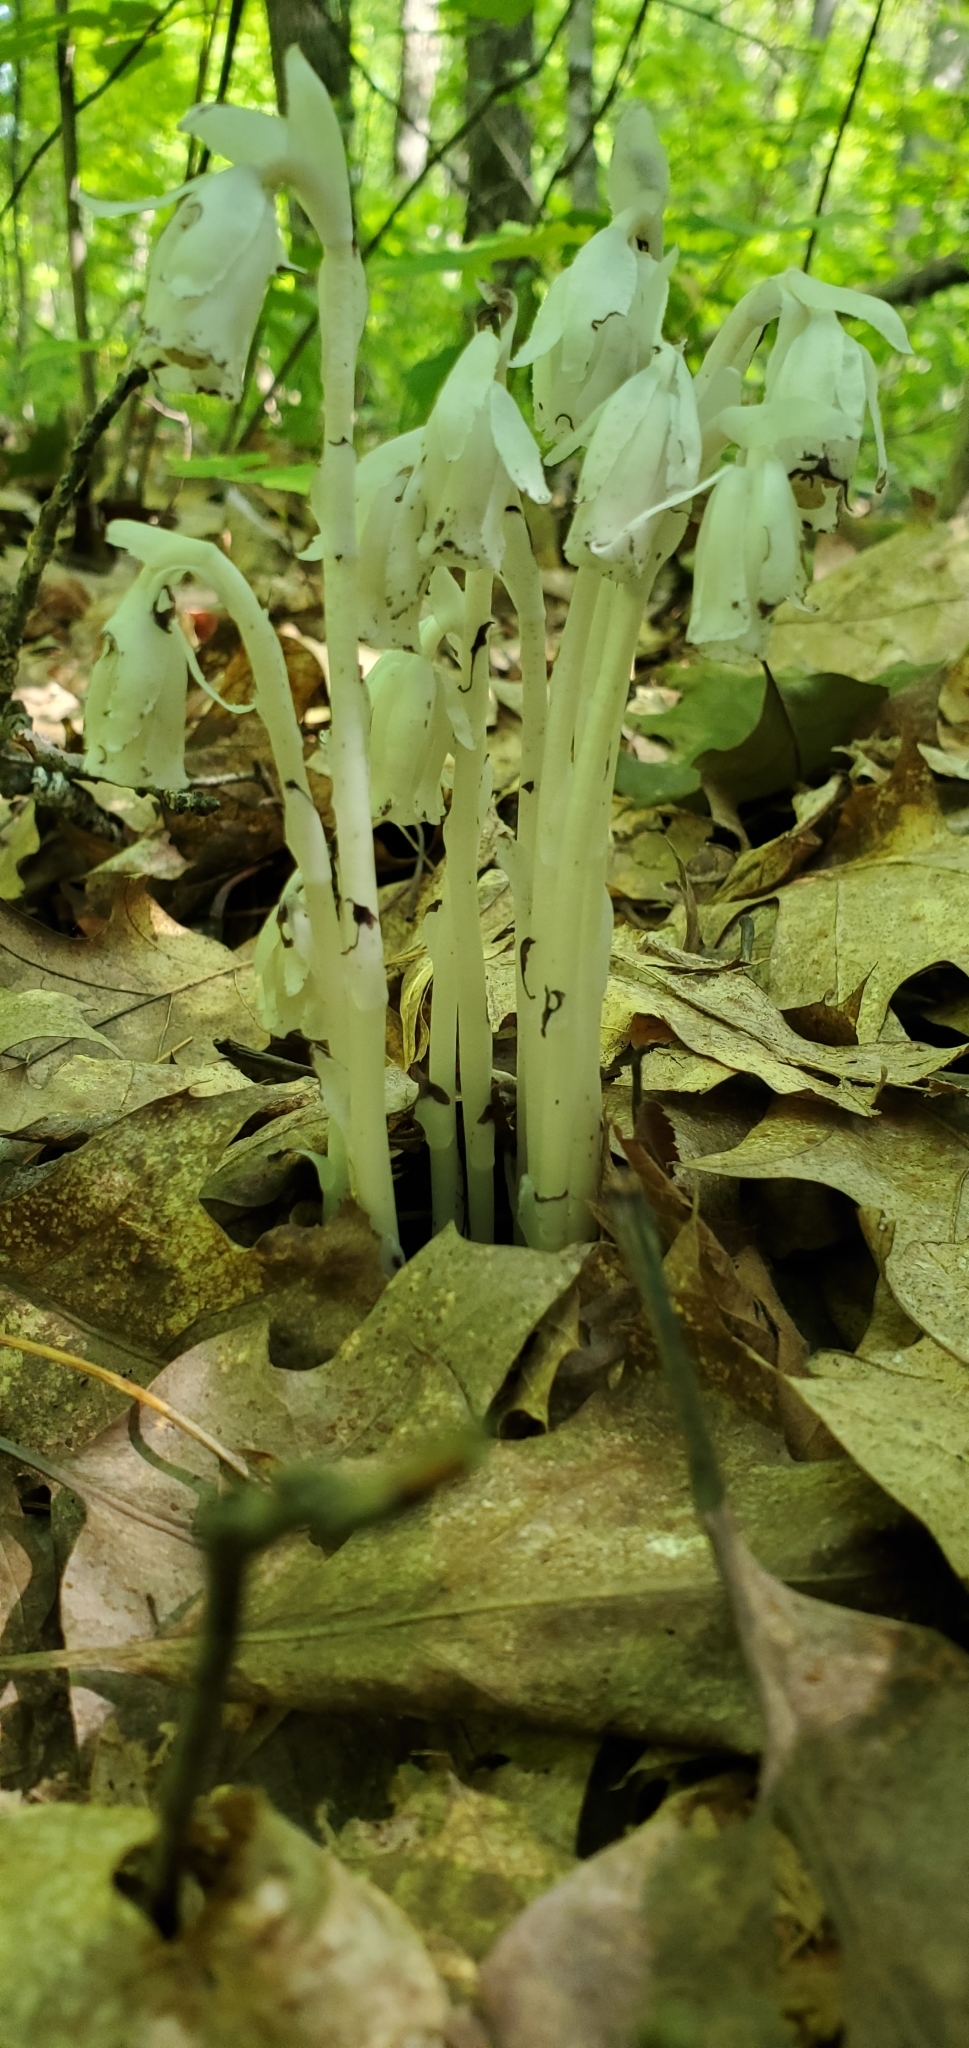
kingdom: Plantae
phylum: Tracheophyta
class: Magnoliopsida
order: Ericales
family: Ericaceae
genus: Monotropa
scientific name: Monotropa uniflora
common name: Convulsion root
